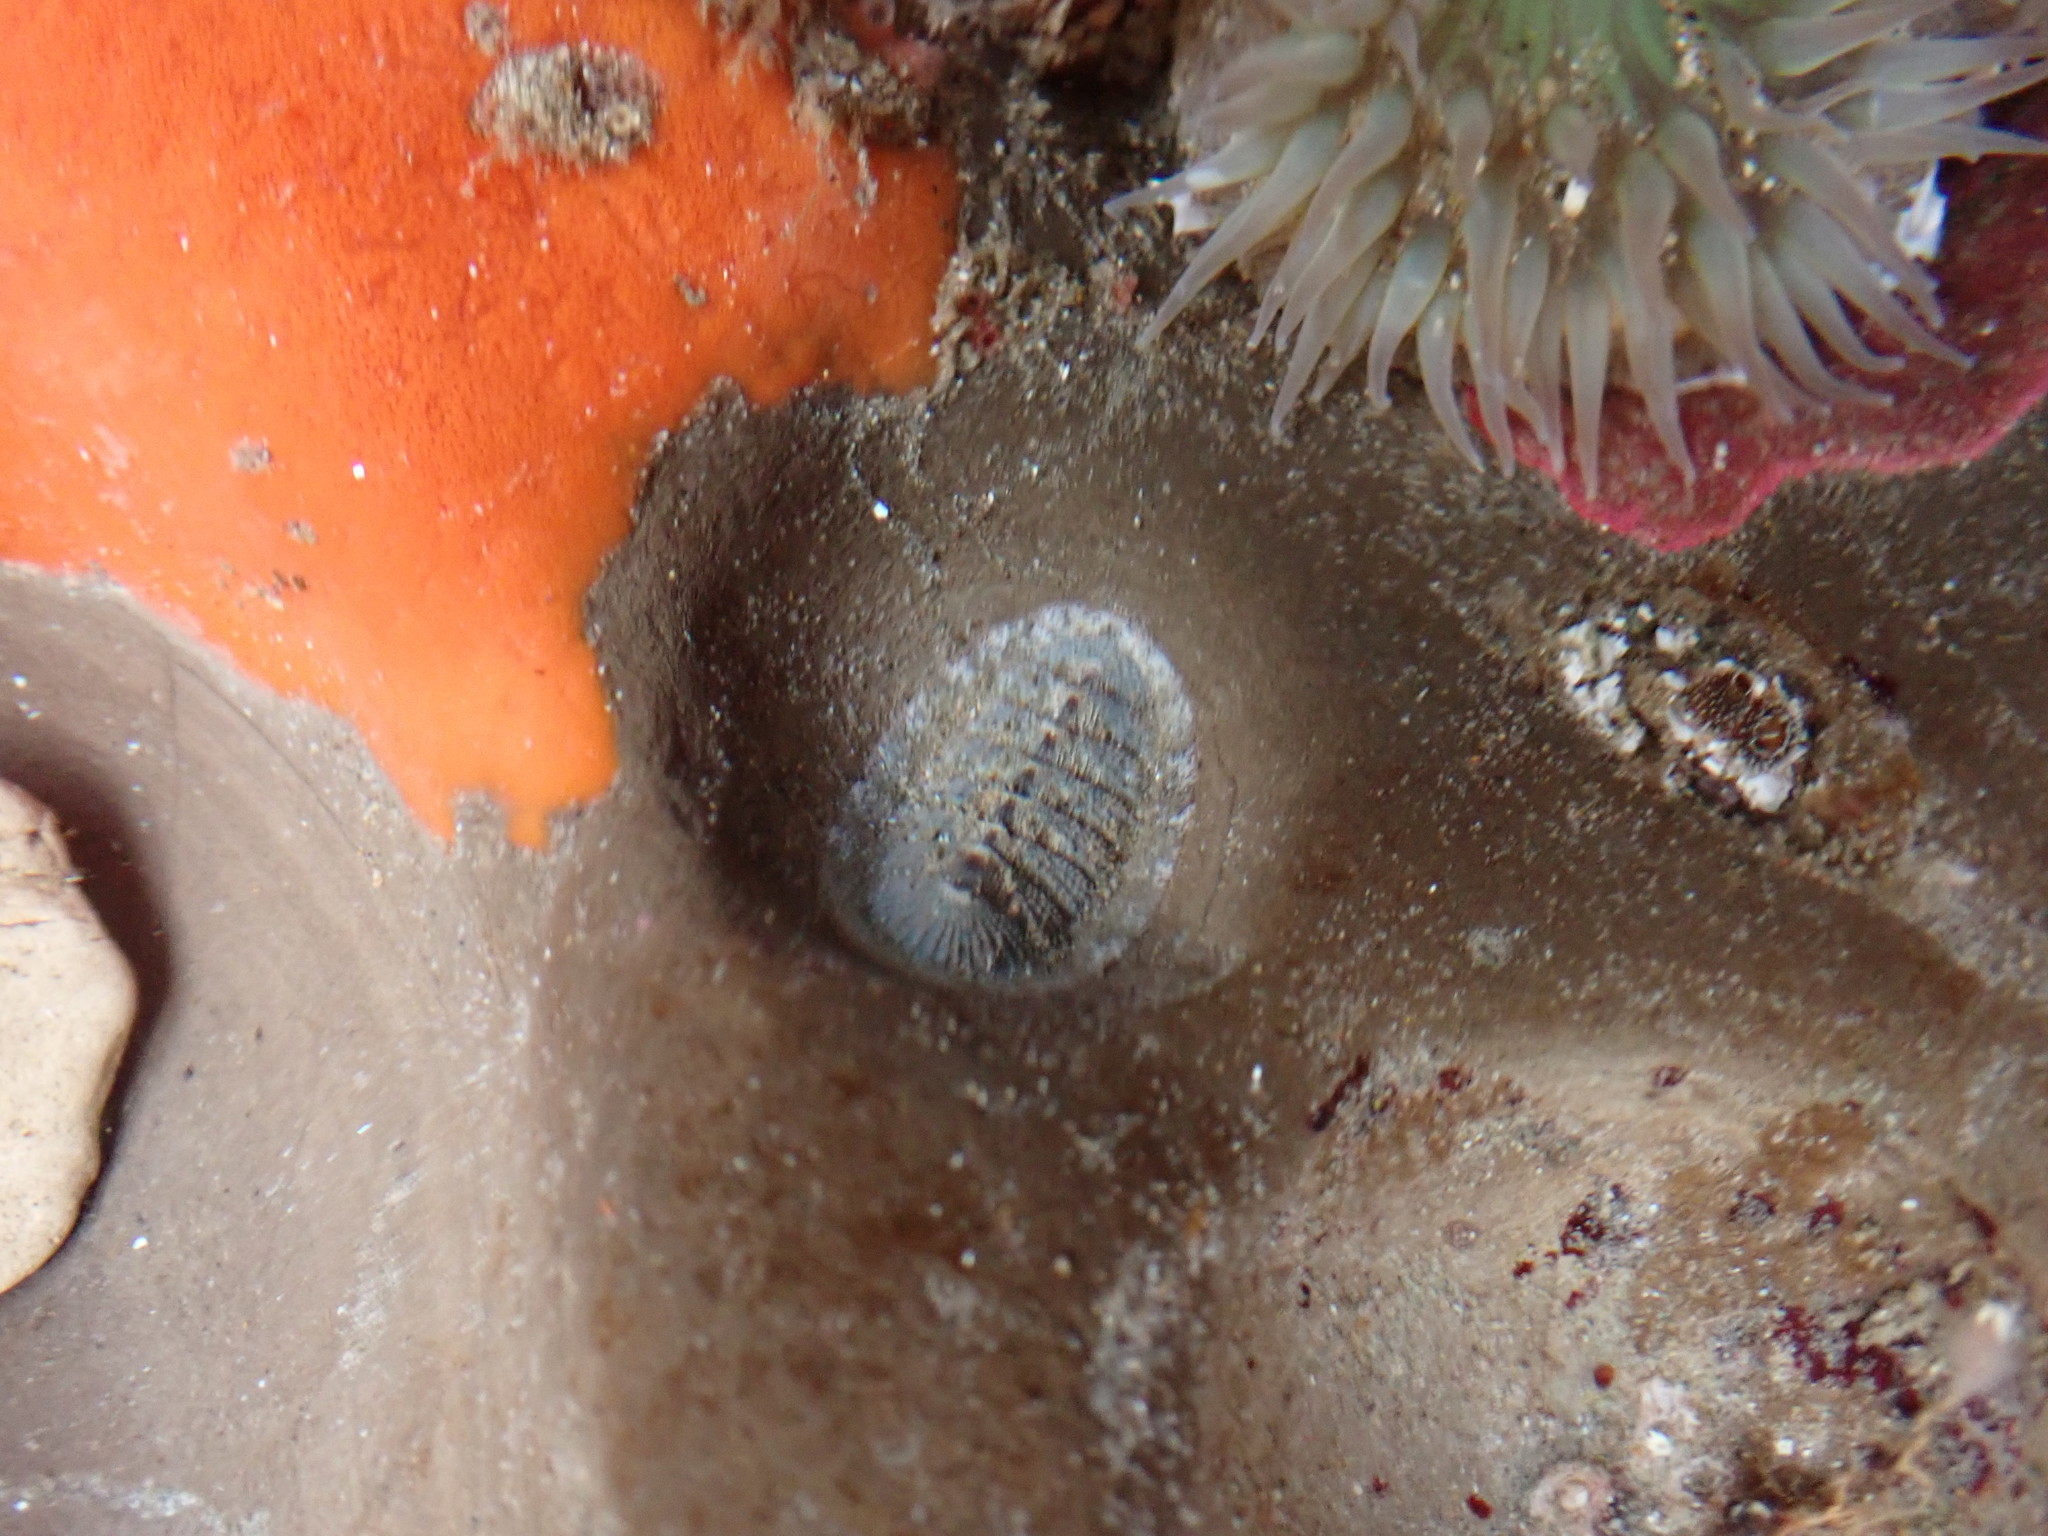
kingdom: Animalia
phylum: Mollusca
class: Polyplacophora
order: Chitonida
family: Ischnochitonidae
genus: Lepidozona
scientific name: Lepidozona cooperi
